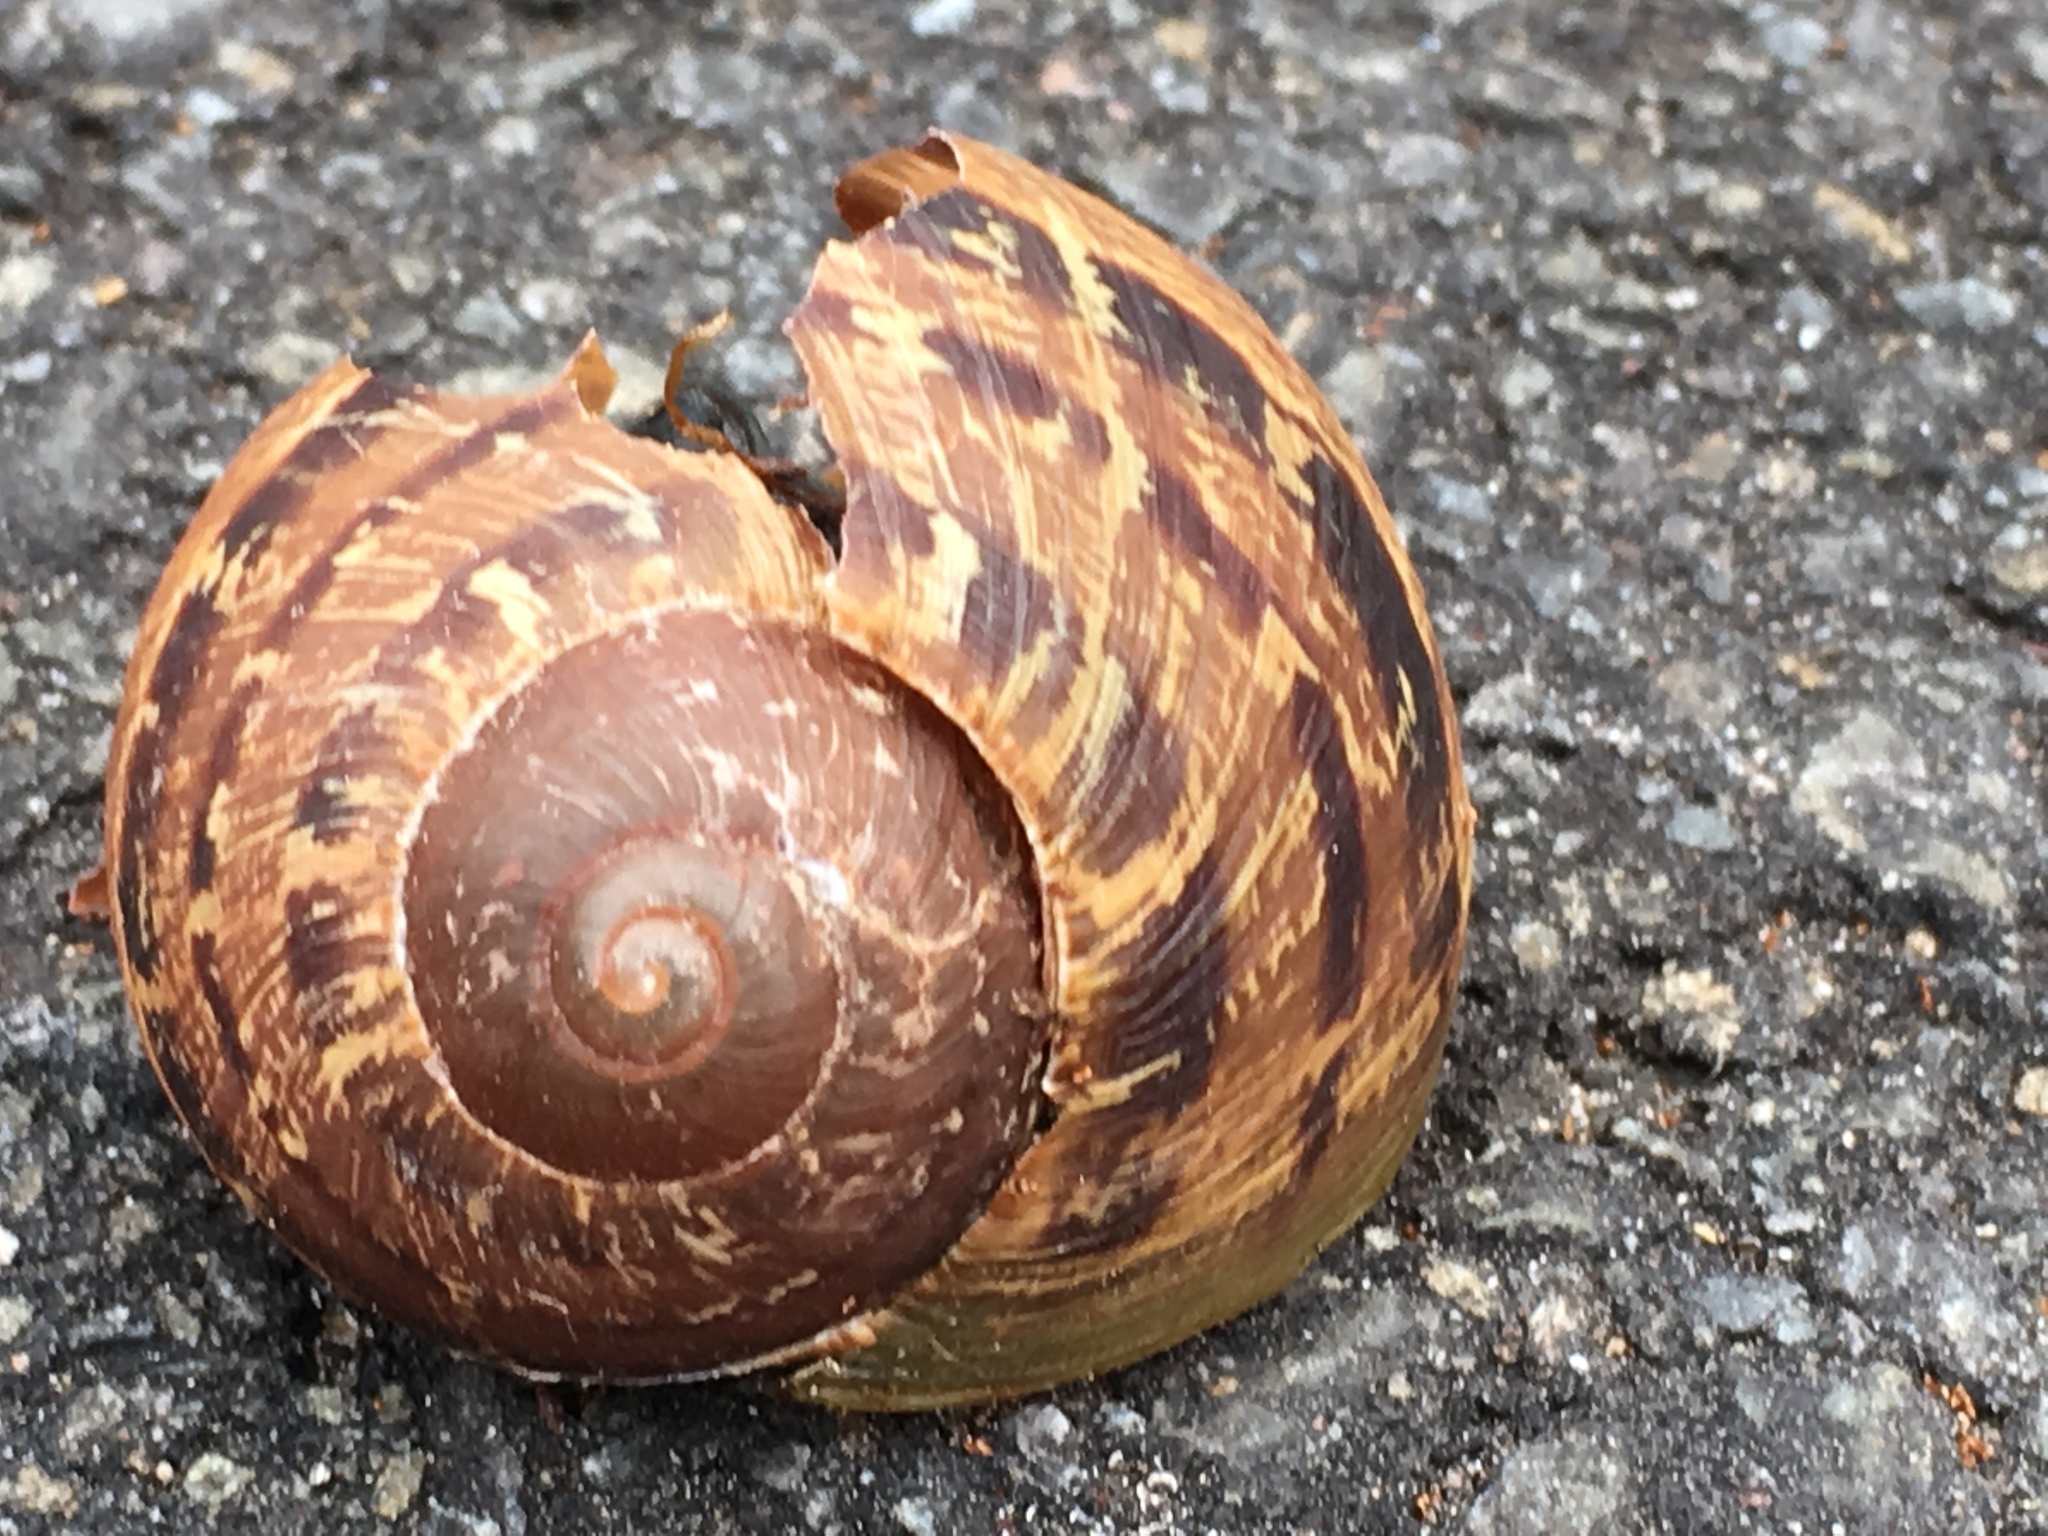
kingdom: Animalia
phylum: Mollusca
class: Gastropoda
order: Stylommatophora
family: Helicidae
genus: Cornu
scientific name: Cornu aspersum
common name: Brown garden snail
